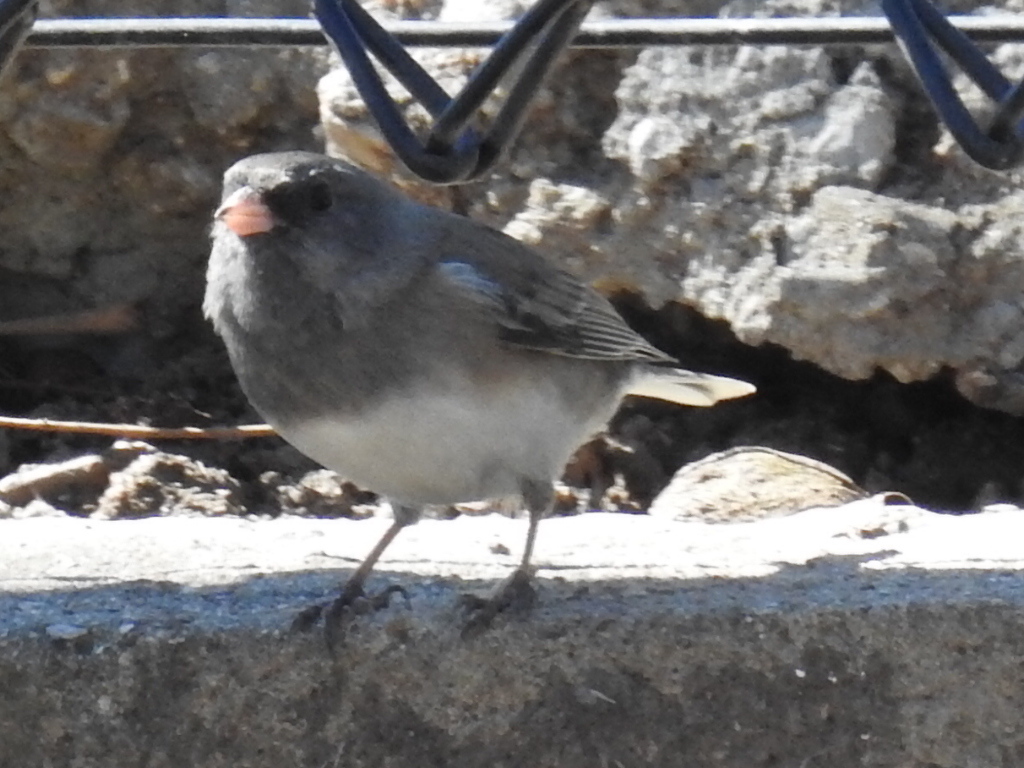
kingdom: Animalia
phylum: Chordata
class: Aves
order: Passeriformes
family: Passerellidae
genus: Junco
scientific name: Junco hyemalis
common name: Dark-eyed junco
